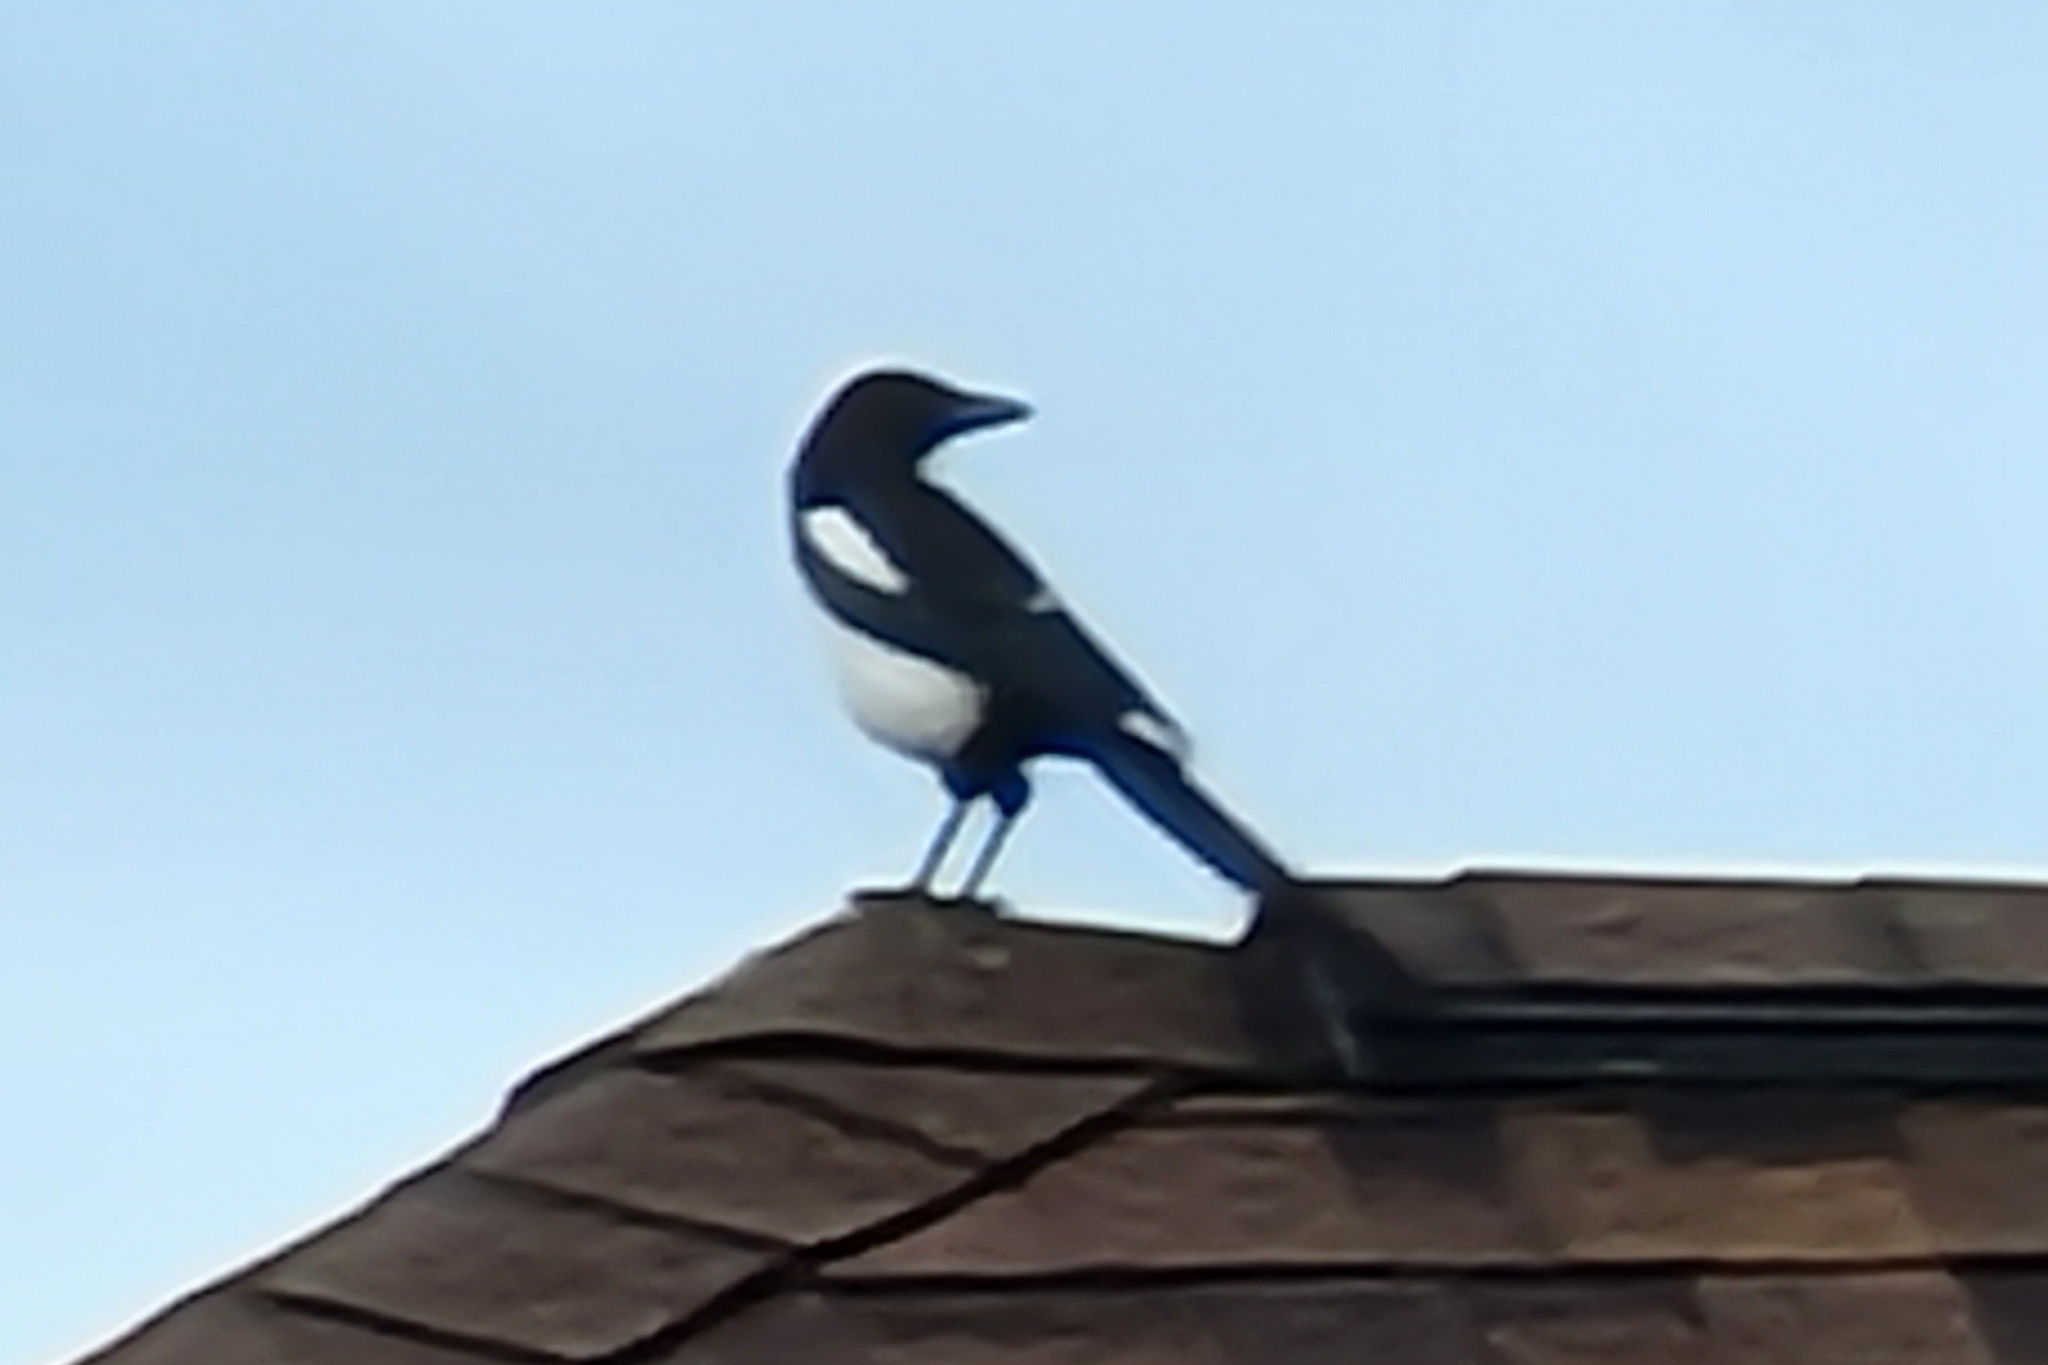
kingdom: Animalia
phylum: Chordata
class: Aves
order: Passeriformes
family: Corvidae
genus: Pica
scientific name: Pica hudsonia
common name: Black-billed magpie
